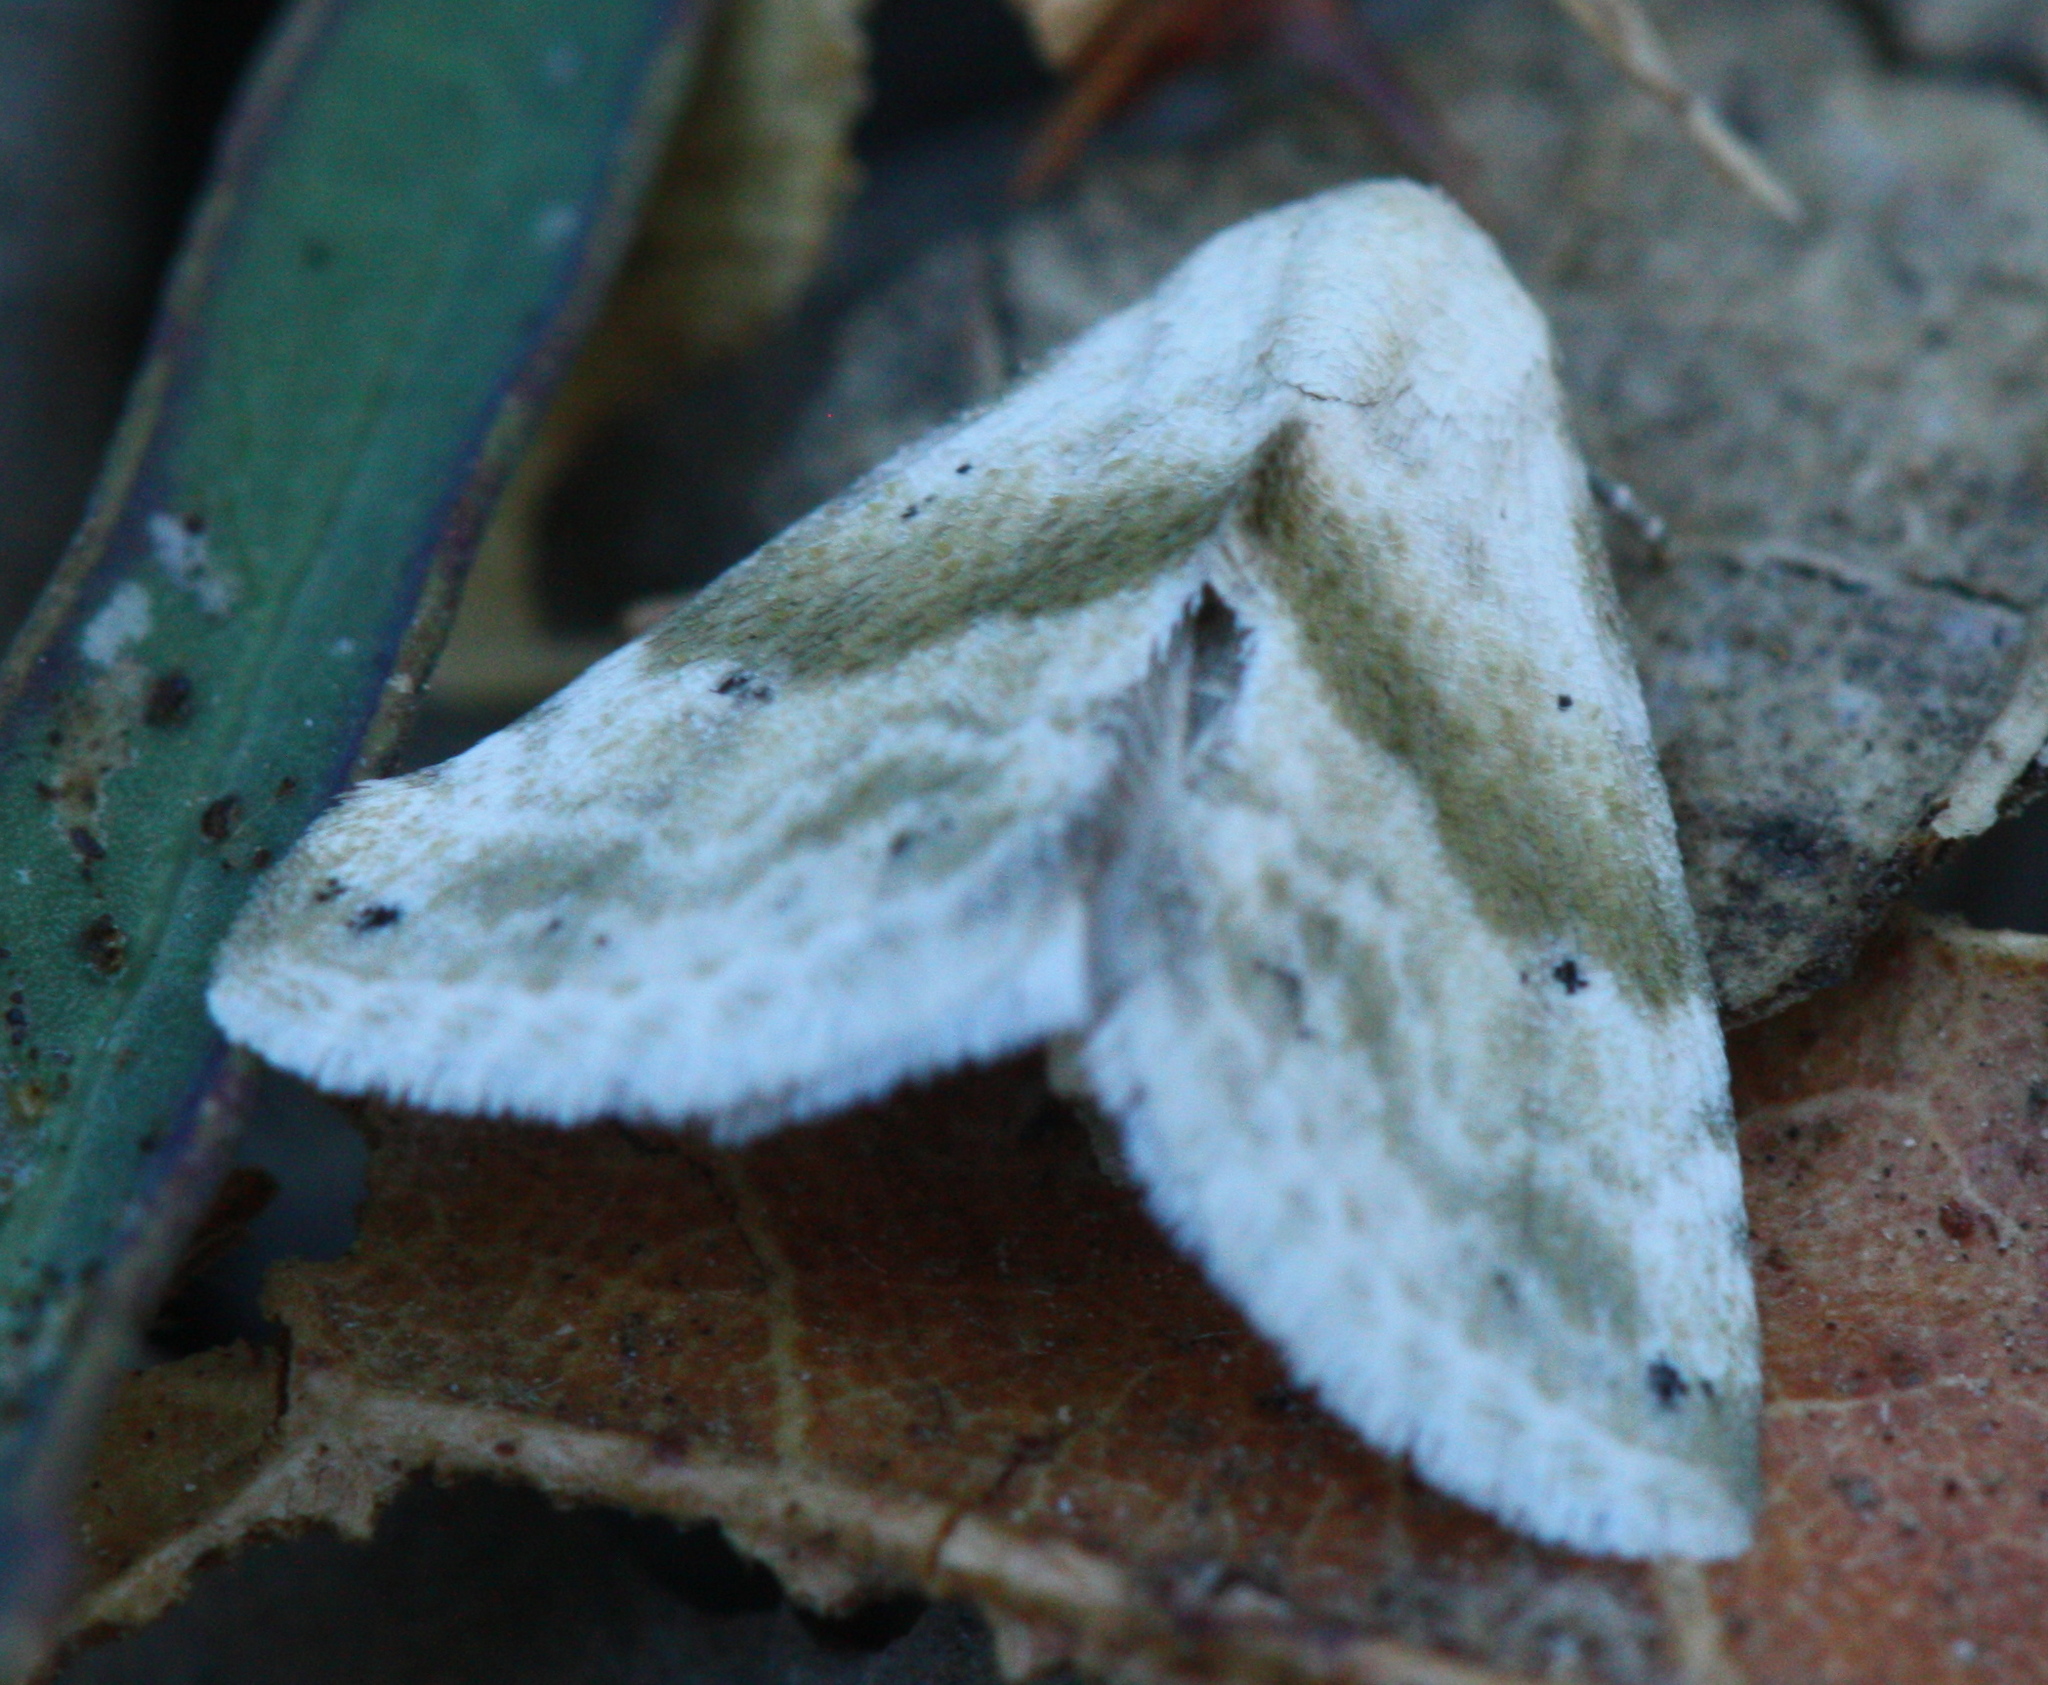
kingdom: Animalia
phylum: Arthropoda
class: Insecta
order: Lepidoptera
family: Noctuidae
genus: Eublemma
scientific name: Eublemma minima
